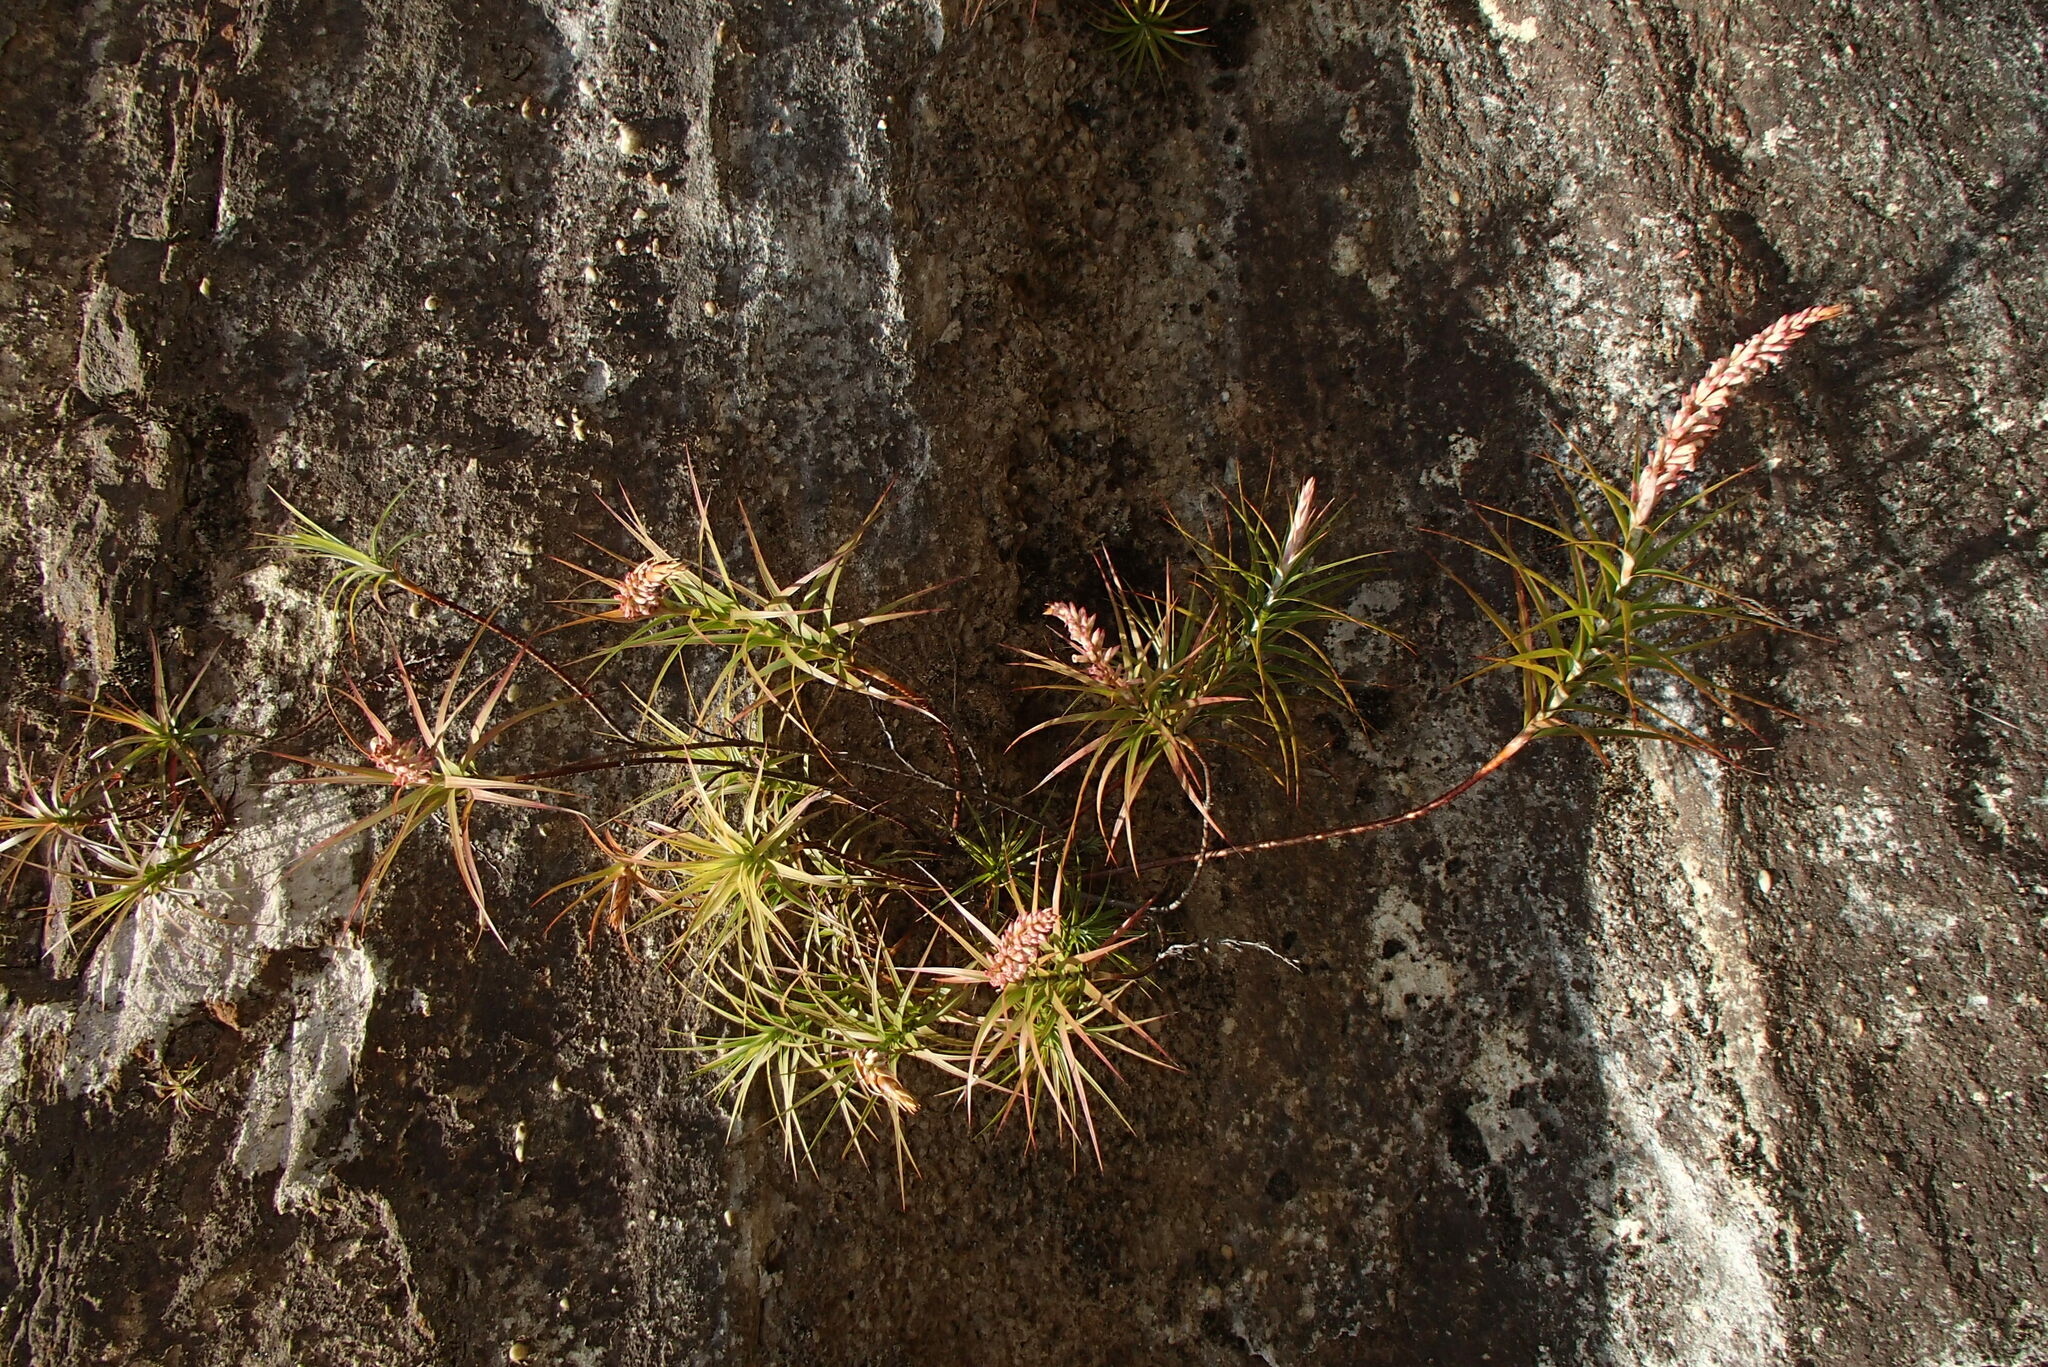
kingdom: Plantae
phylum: Tracheophyta
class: Magnoliopsida
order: Ericales
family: Ericaceae
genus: Dracophyllum
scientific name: Dracophyllum secundum
